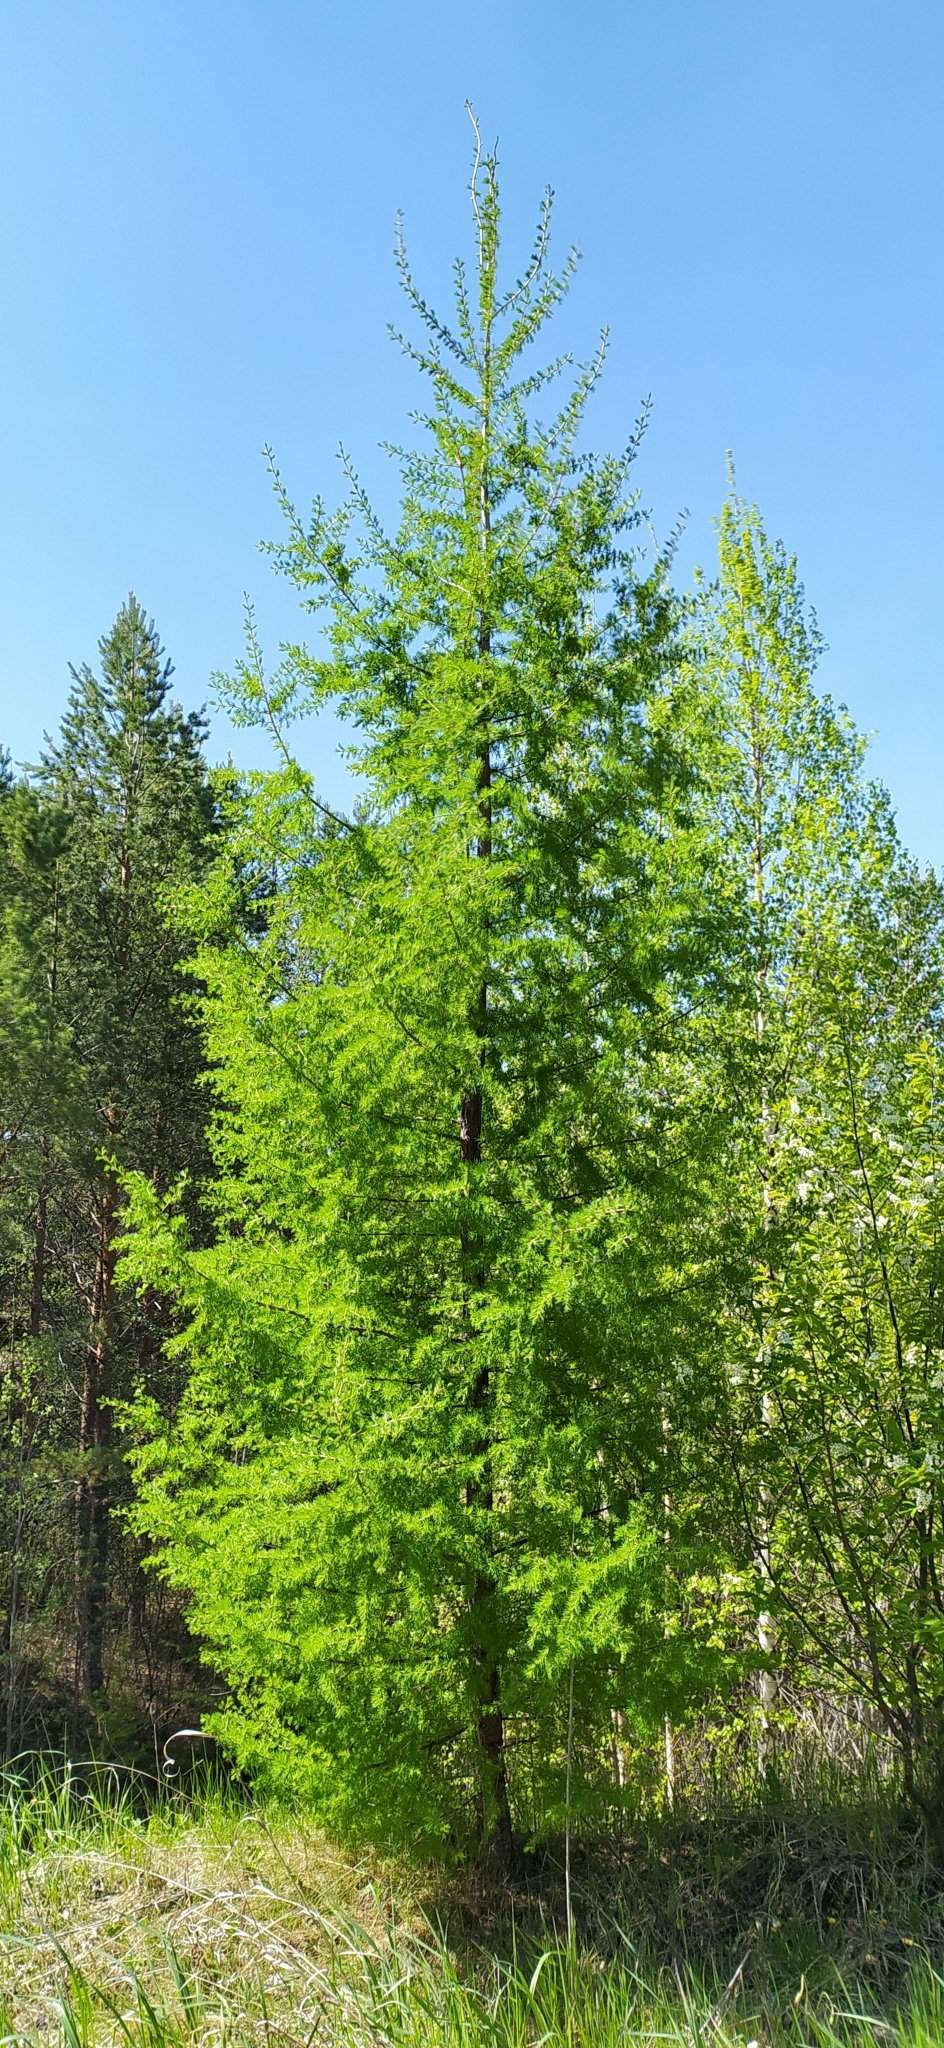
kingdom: Plantae
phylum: Tracheophyta
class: Pinopsida
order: Pinales
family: Pinaceae
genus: Larix
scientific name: Larix sibirica
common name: Siberian larch
